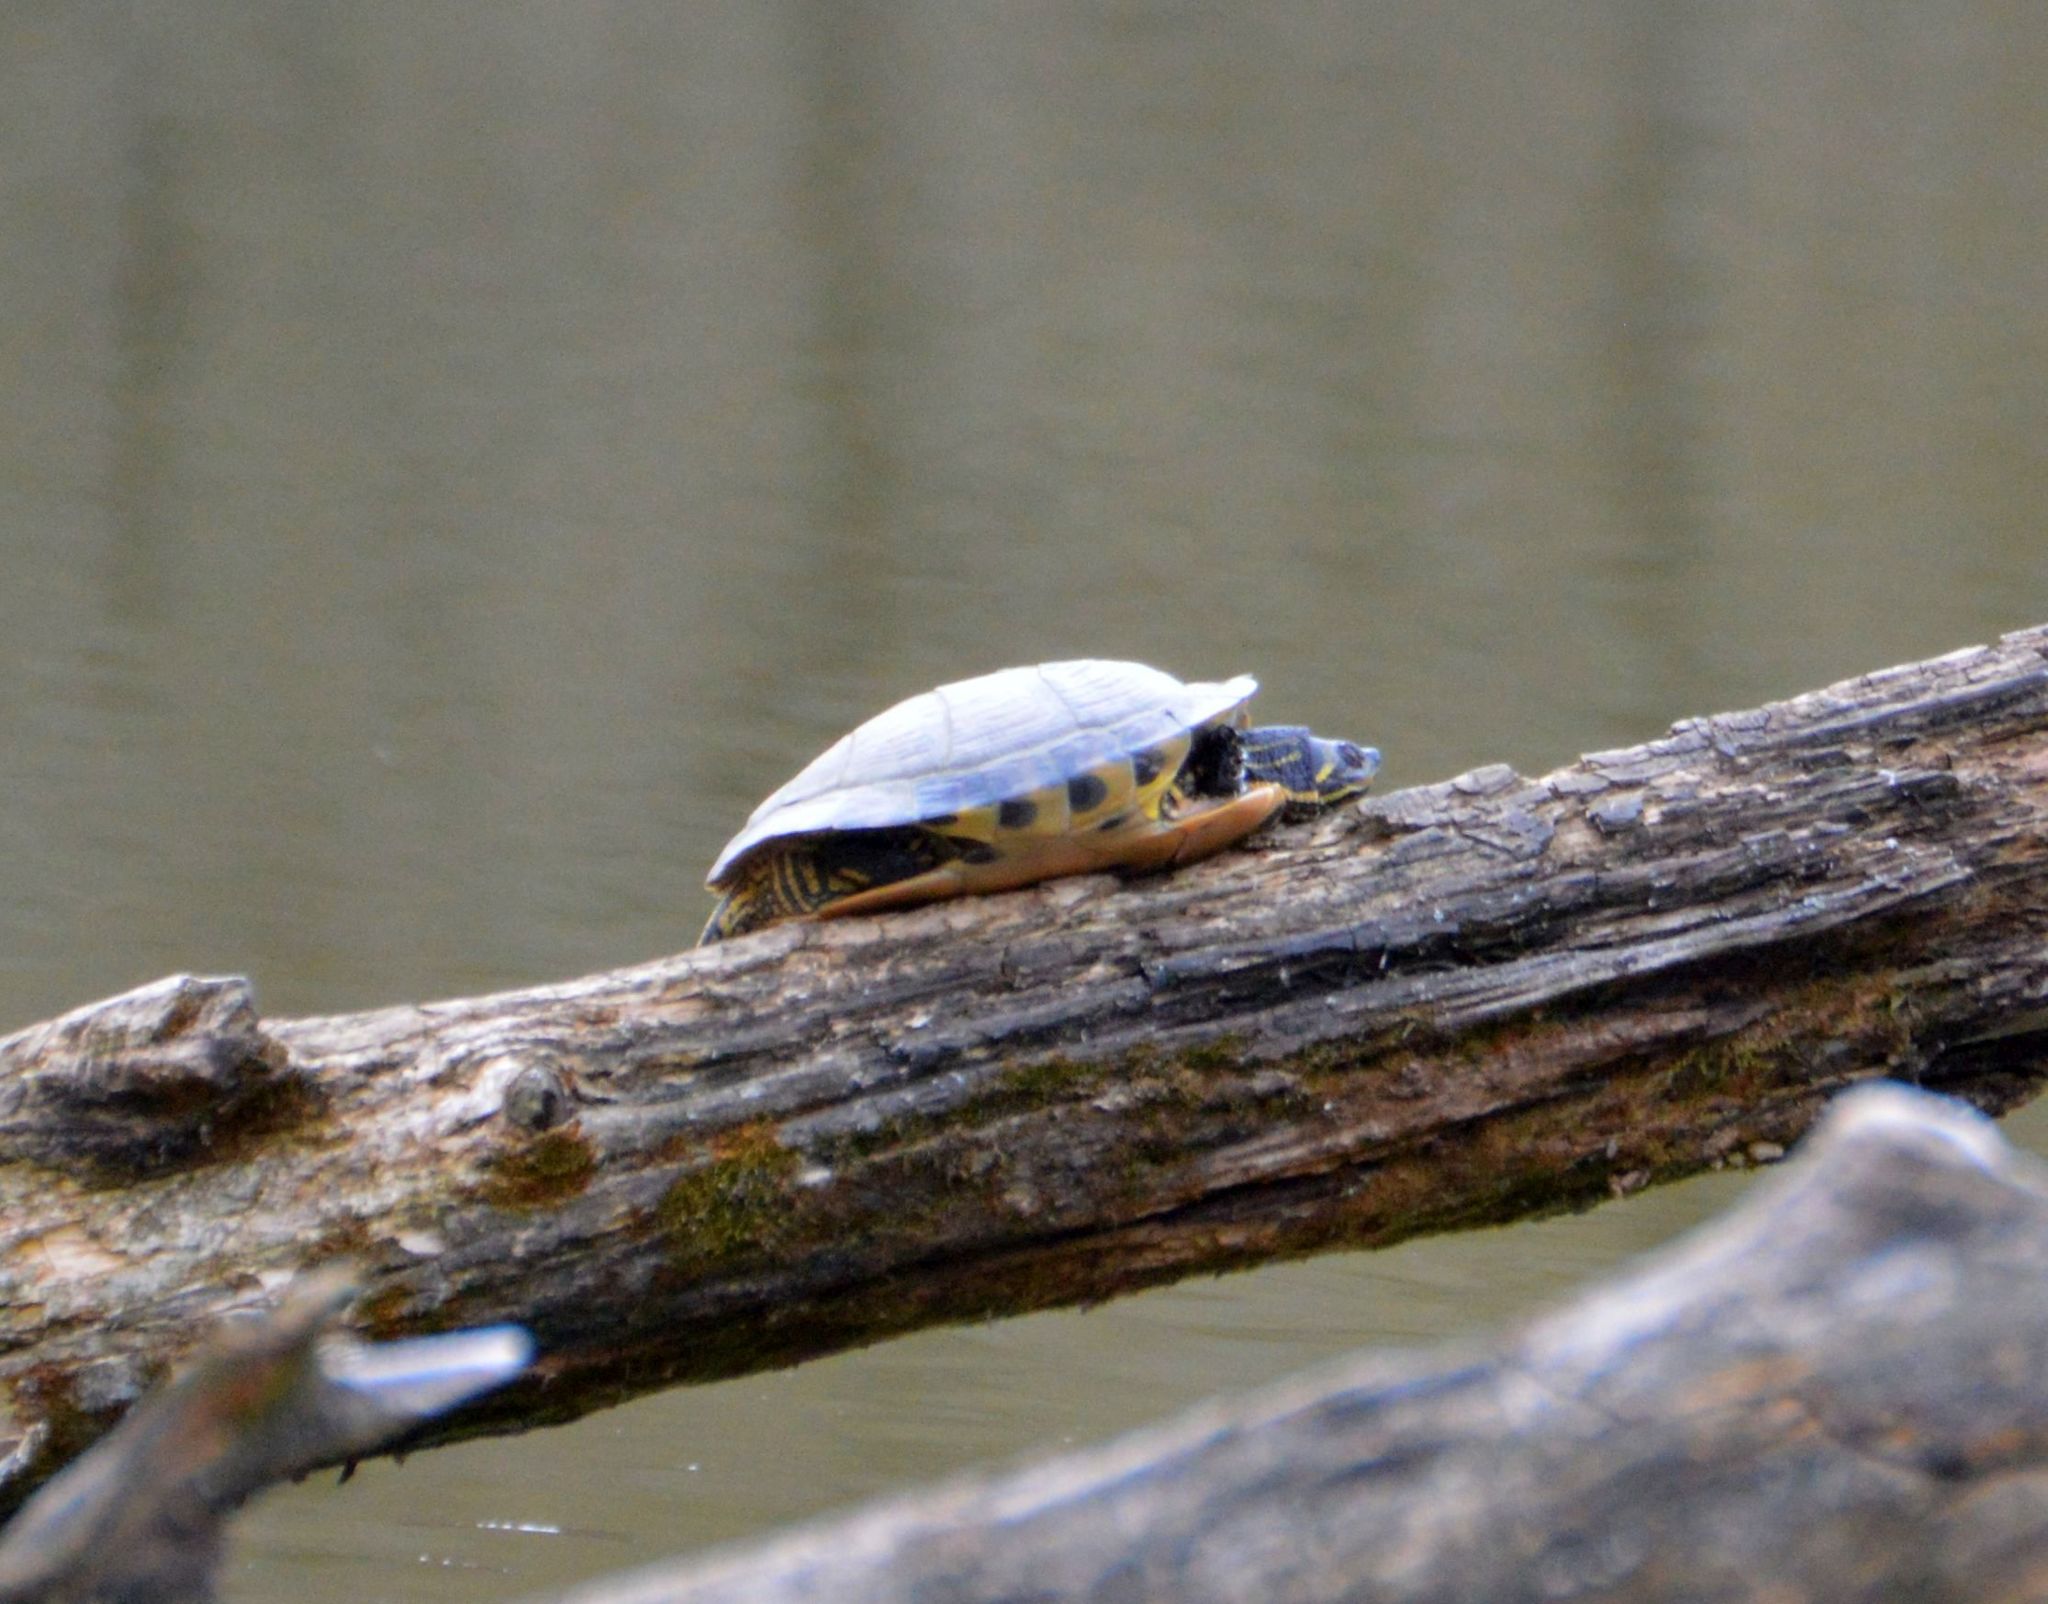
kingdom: Animalia
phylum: Chordata
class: Testudines
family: Emydidae
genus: Trachemys
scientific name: Trachemys scripta
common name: Slider
